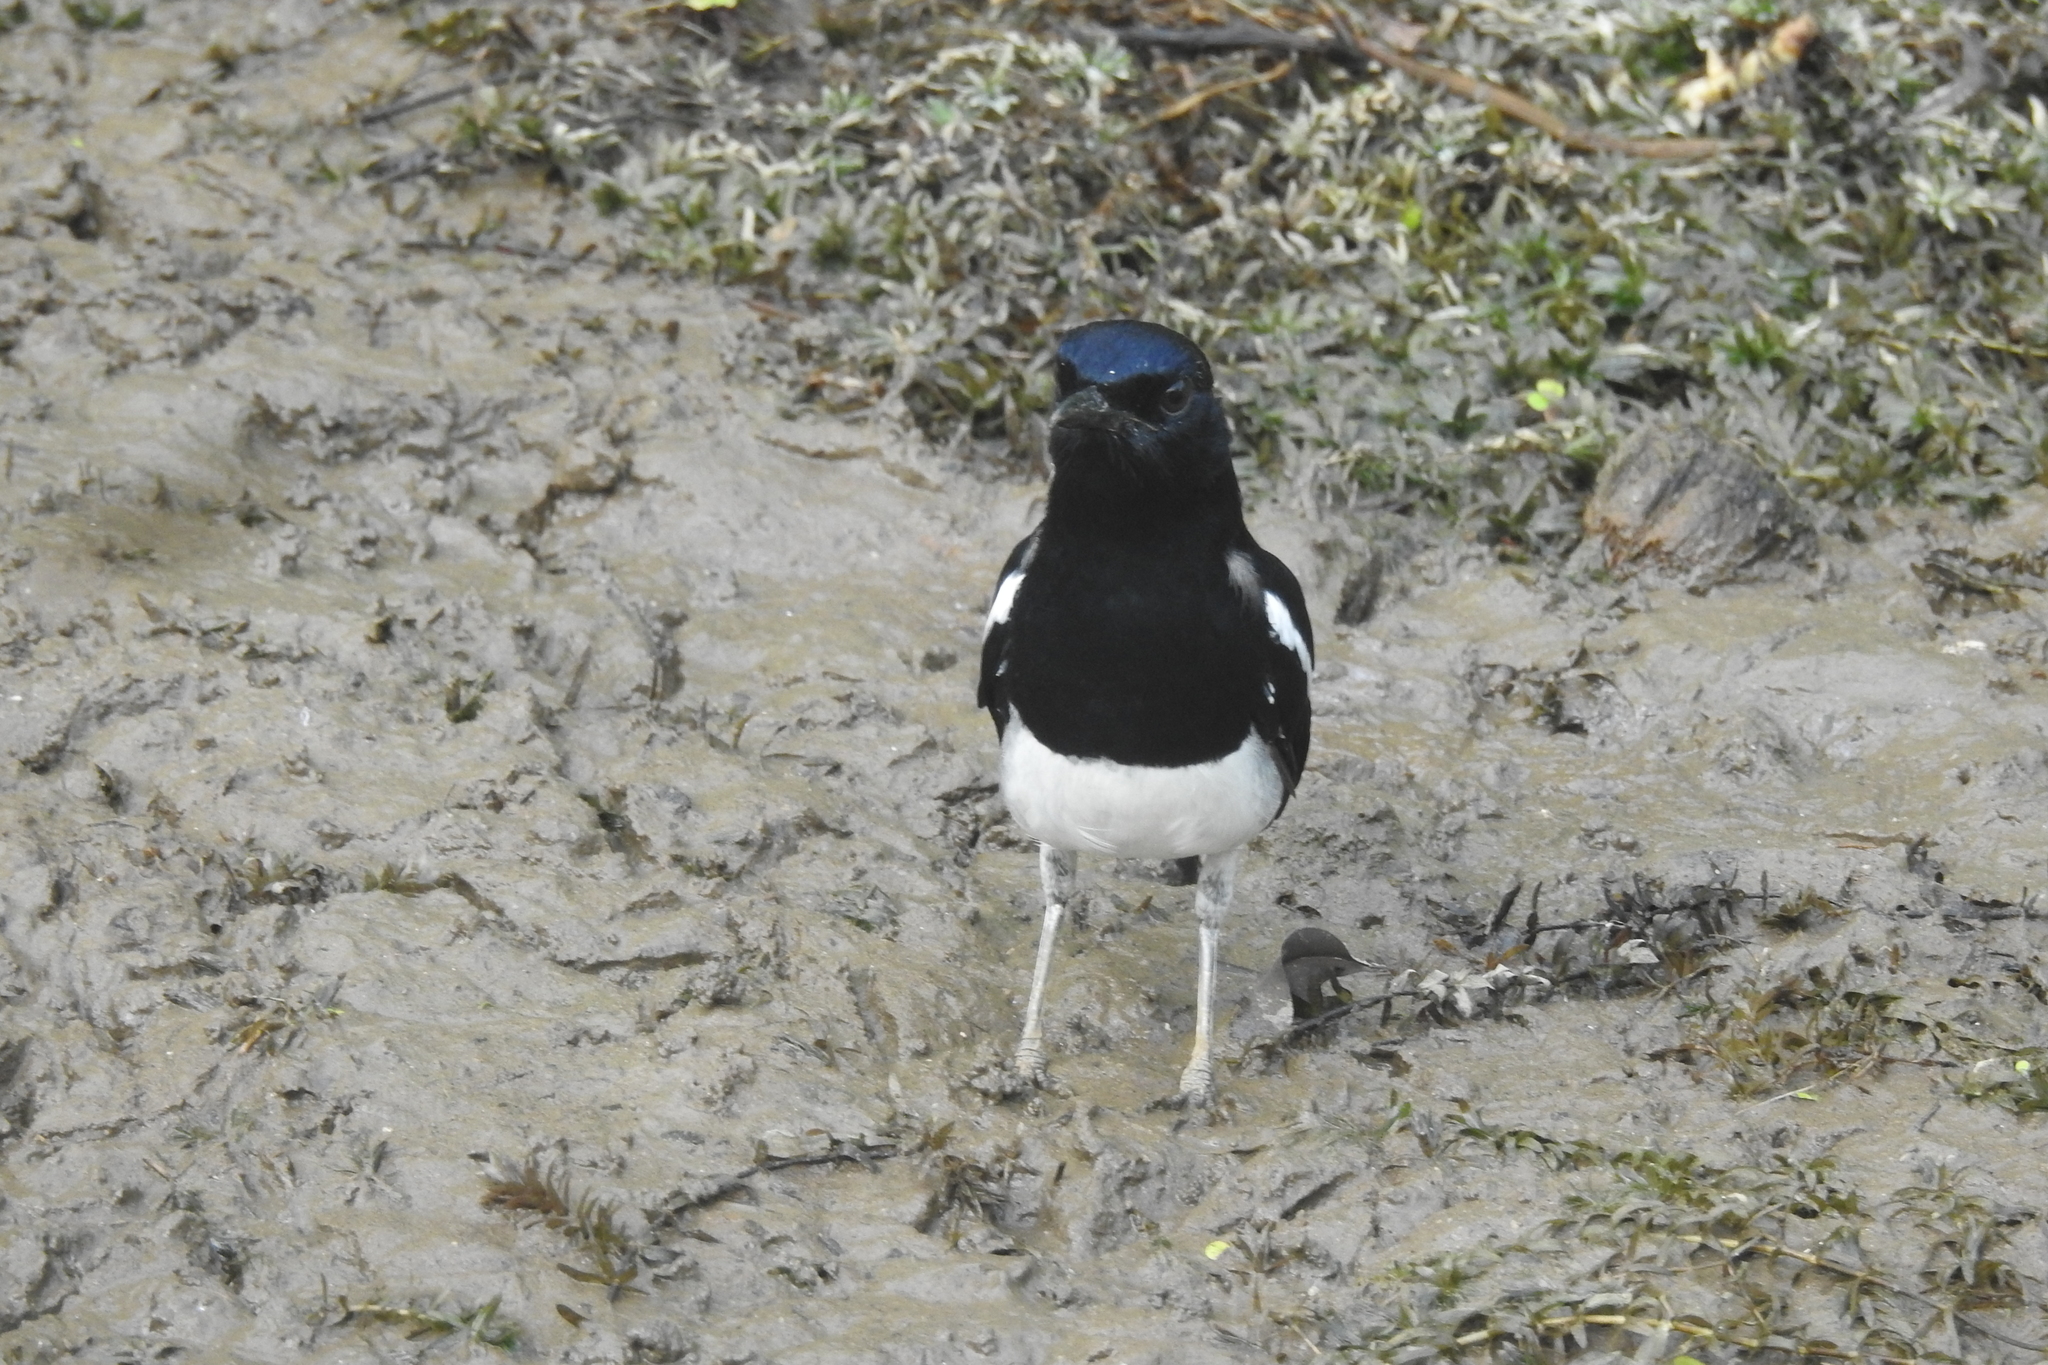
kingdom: Animalia
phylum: Chordata
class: Aves
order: Passeriformes
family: Muscicapidae
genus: Copsychus
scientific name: Copsychus saularis
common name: Oriental magpie-robin
